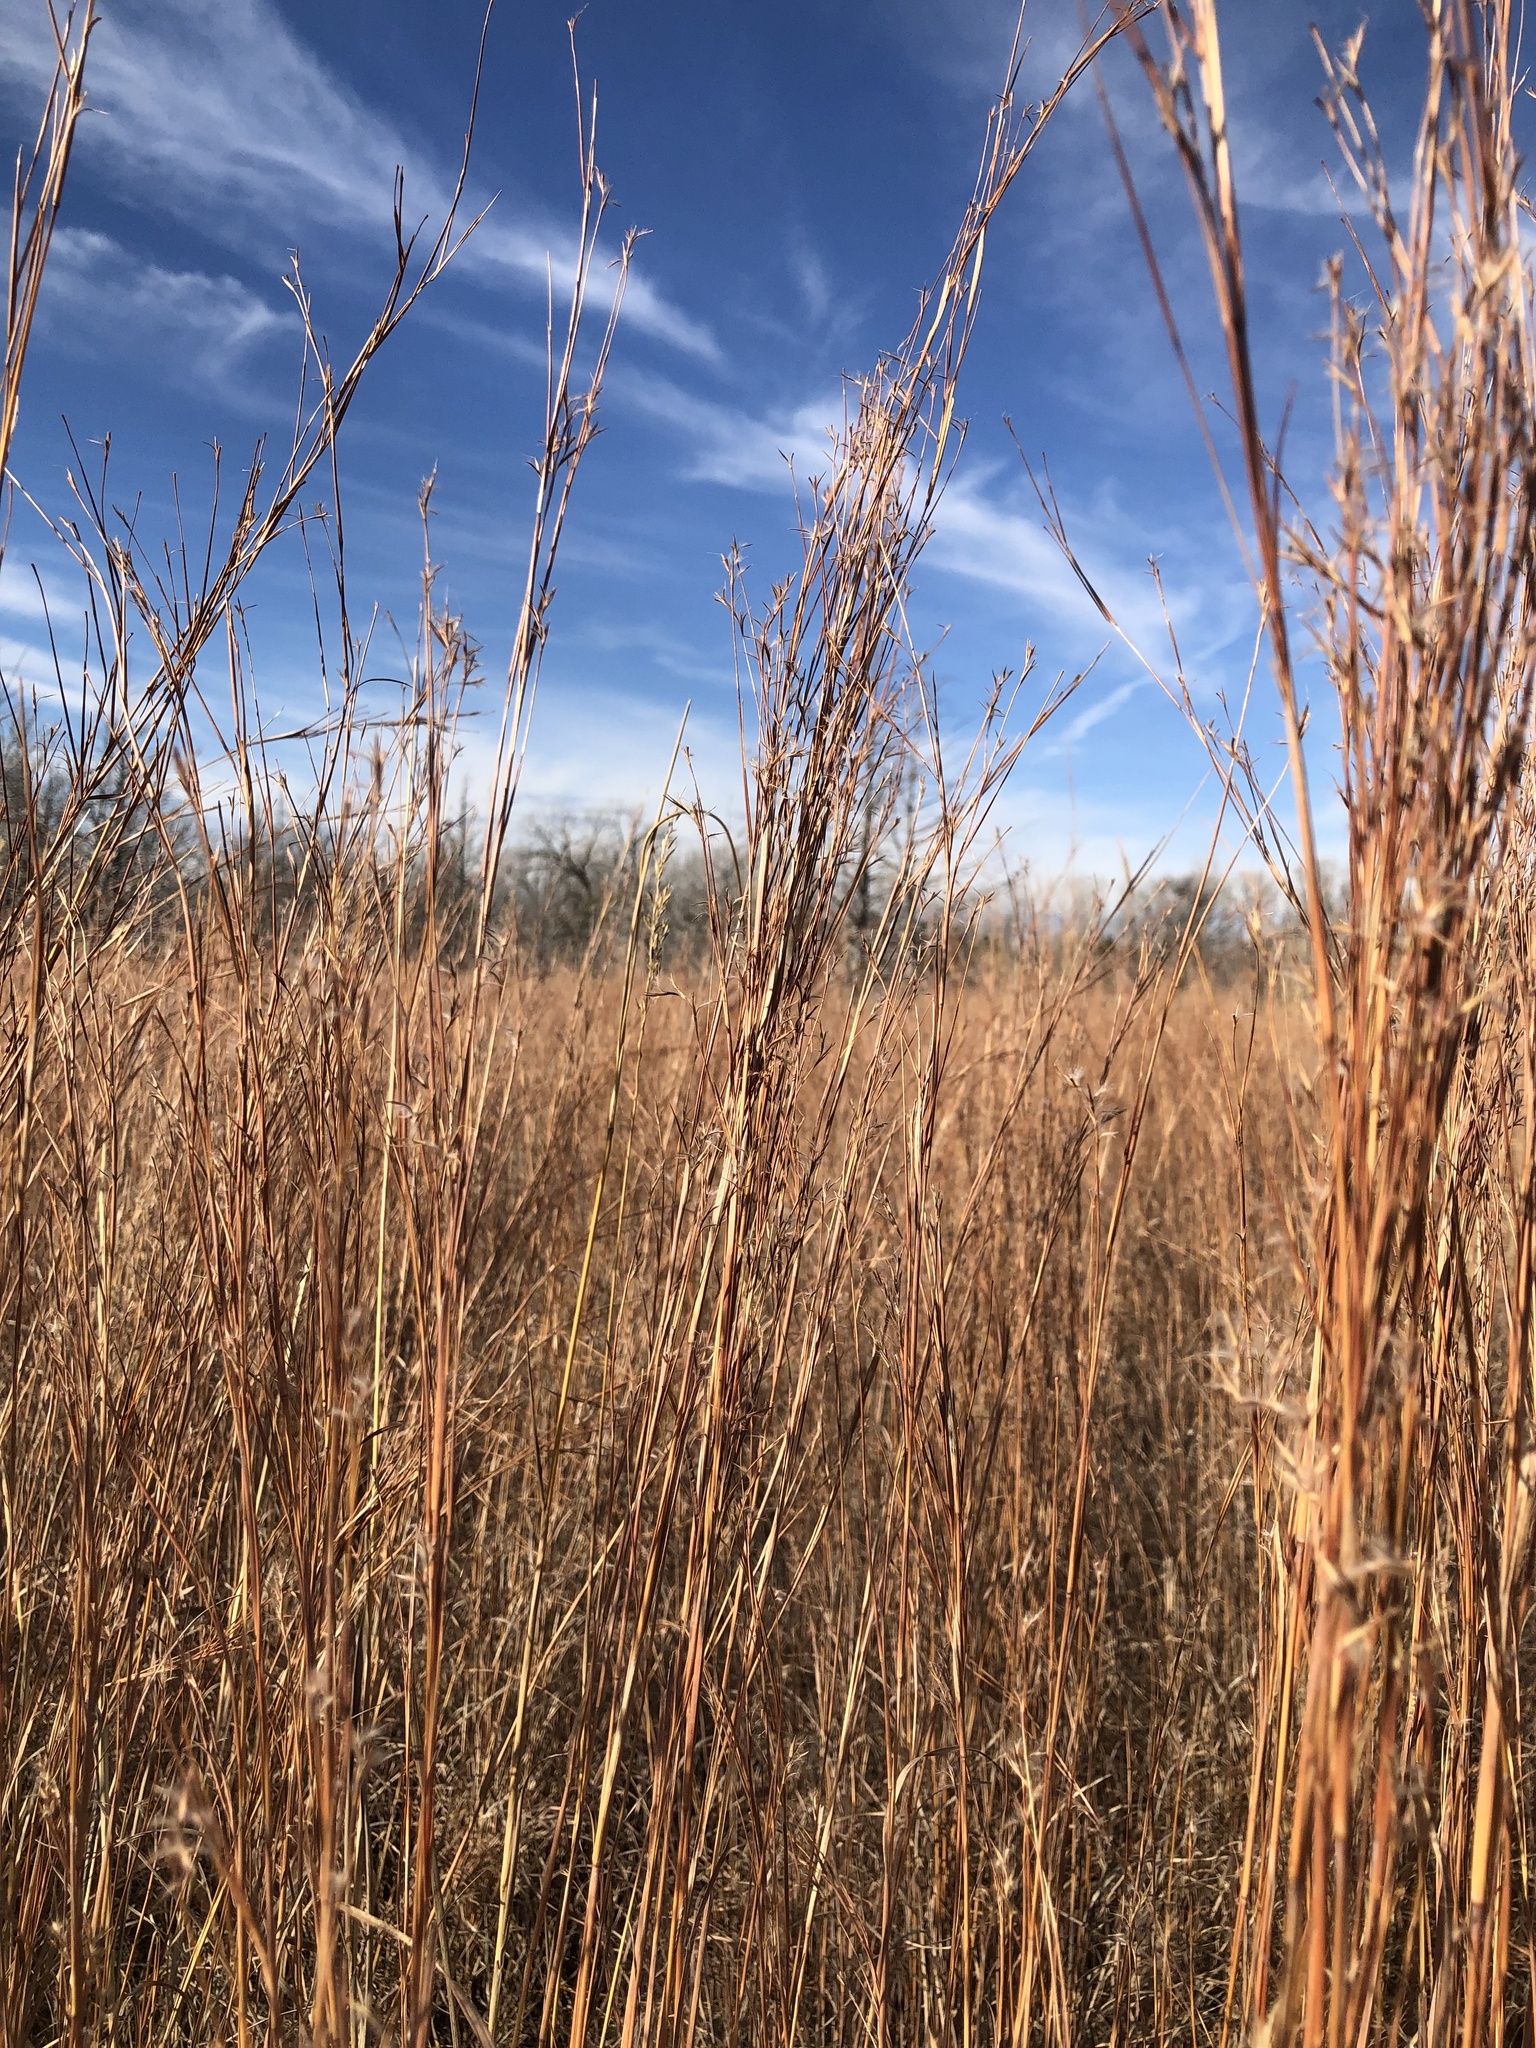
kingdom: Plantae
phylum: Tracheophyta
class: Liliopsida
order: Poales
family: Poaceae
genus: Schizachyrium
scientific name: Schizachyrium scoparium
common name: Little bluestem
